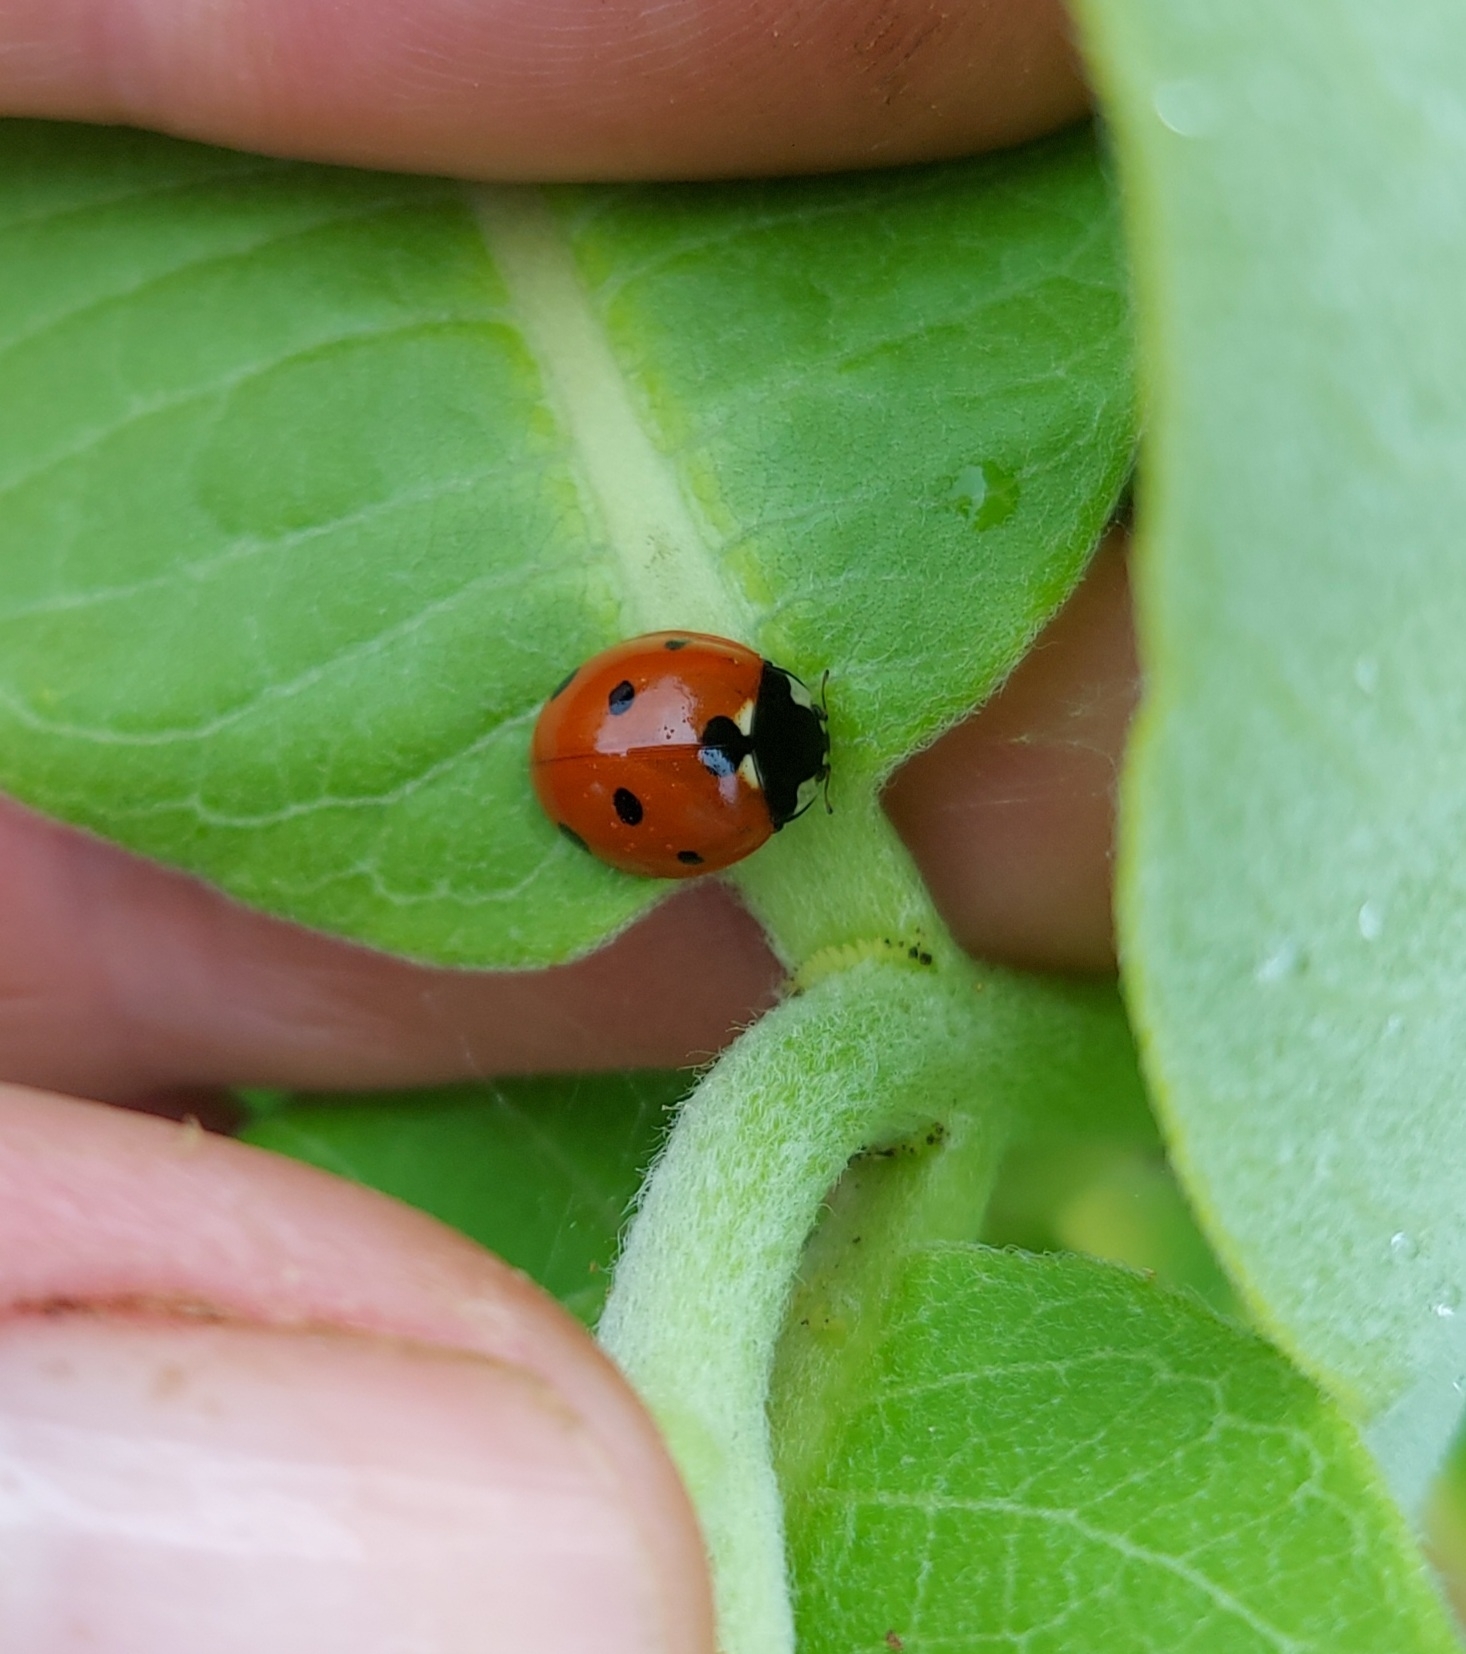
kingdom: Animalia
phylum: Arthropoda
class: Insecta
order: Coleoptera
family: Coccinellidae
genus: Coccinella
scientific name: Coccinella septempunctata
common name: Sevenspotted lady beetle
